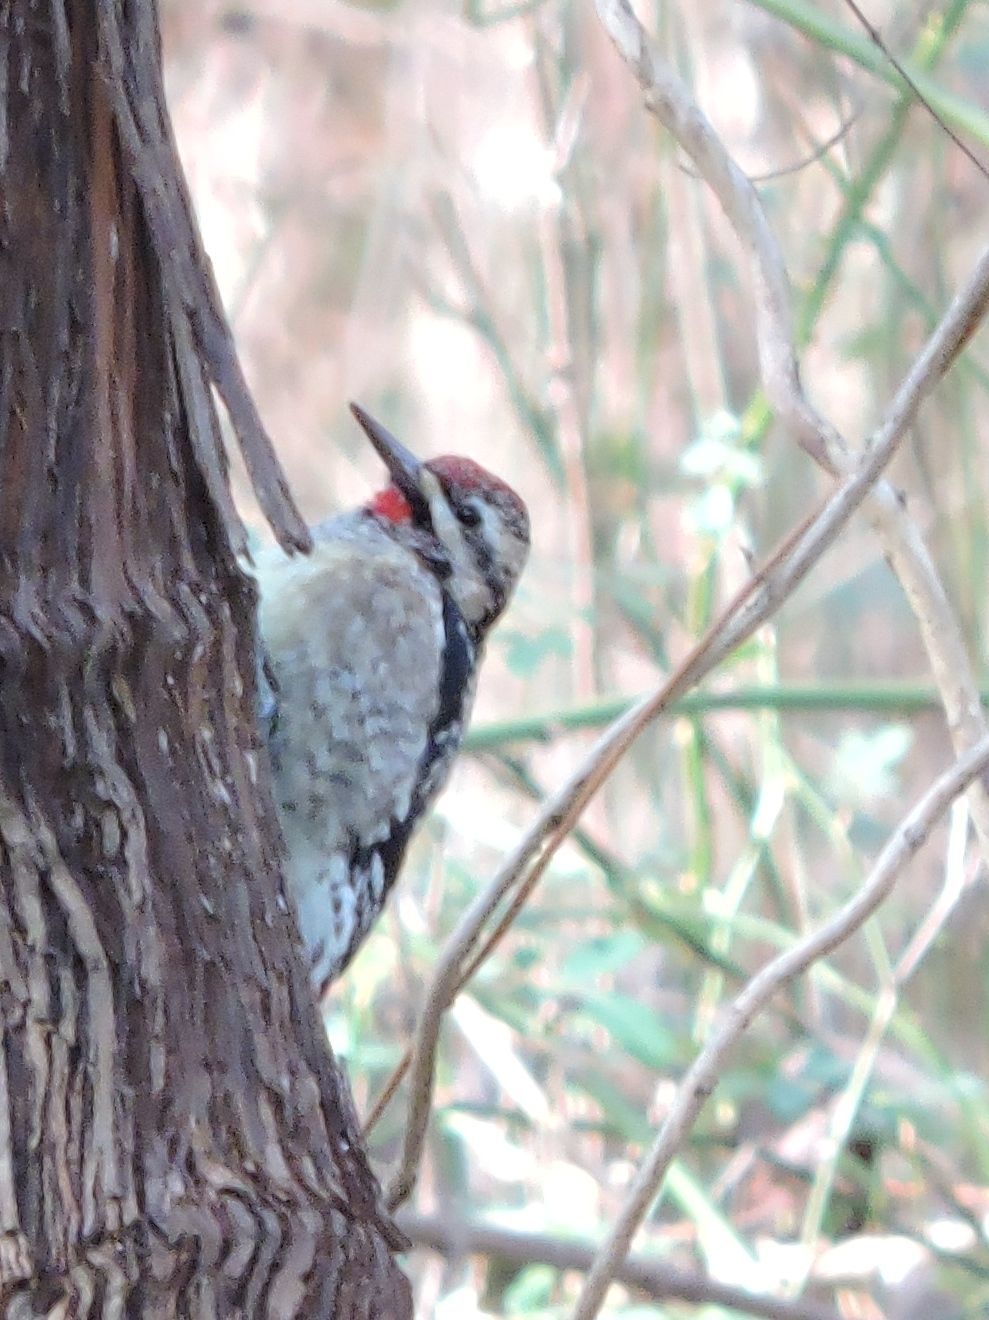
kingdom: Animalia
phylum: Chordata
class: Aves
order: Piciformes
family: Picidae
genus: Sphyrapicus
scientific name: Sphyrapicus varius
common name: Yellow-bellied sapsucker
